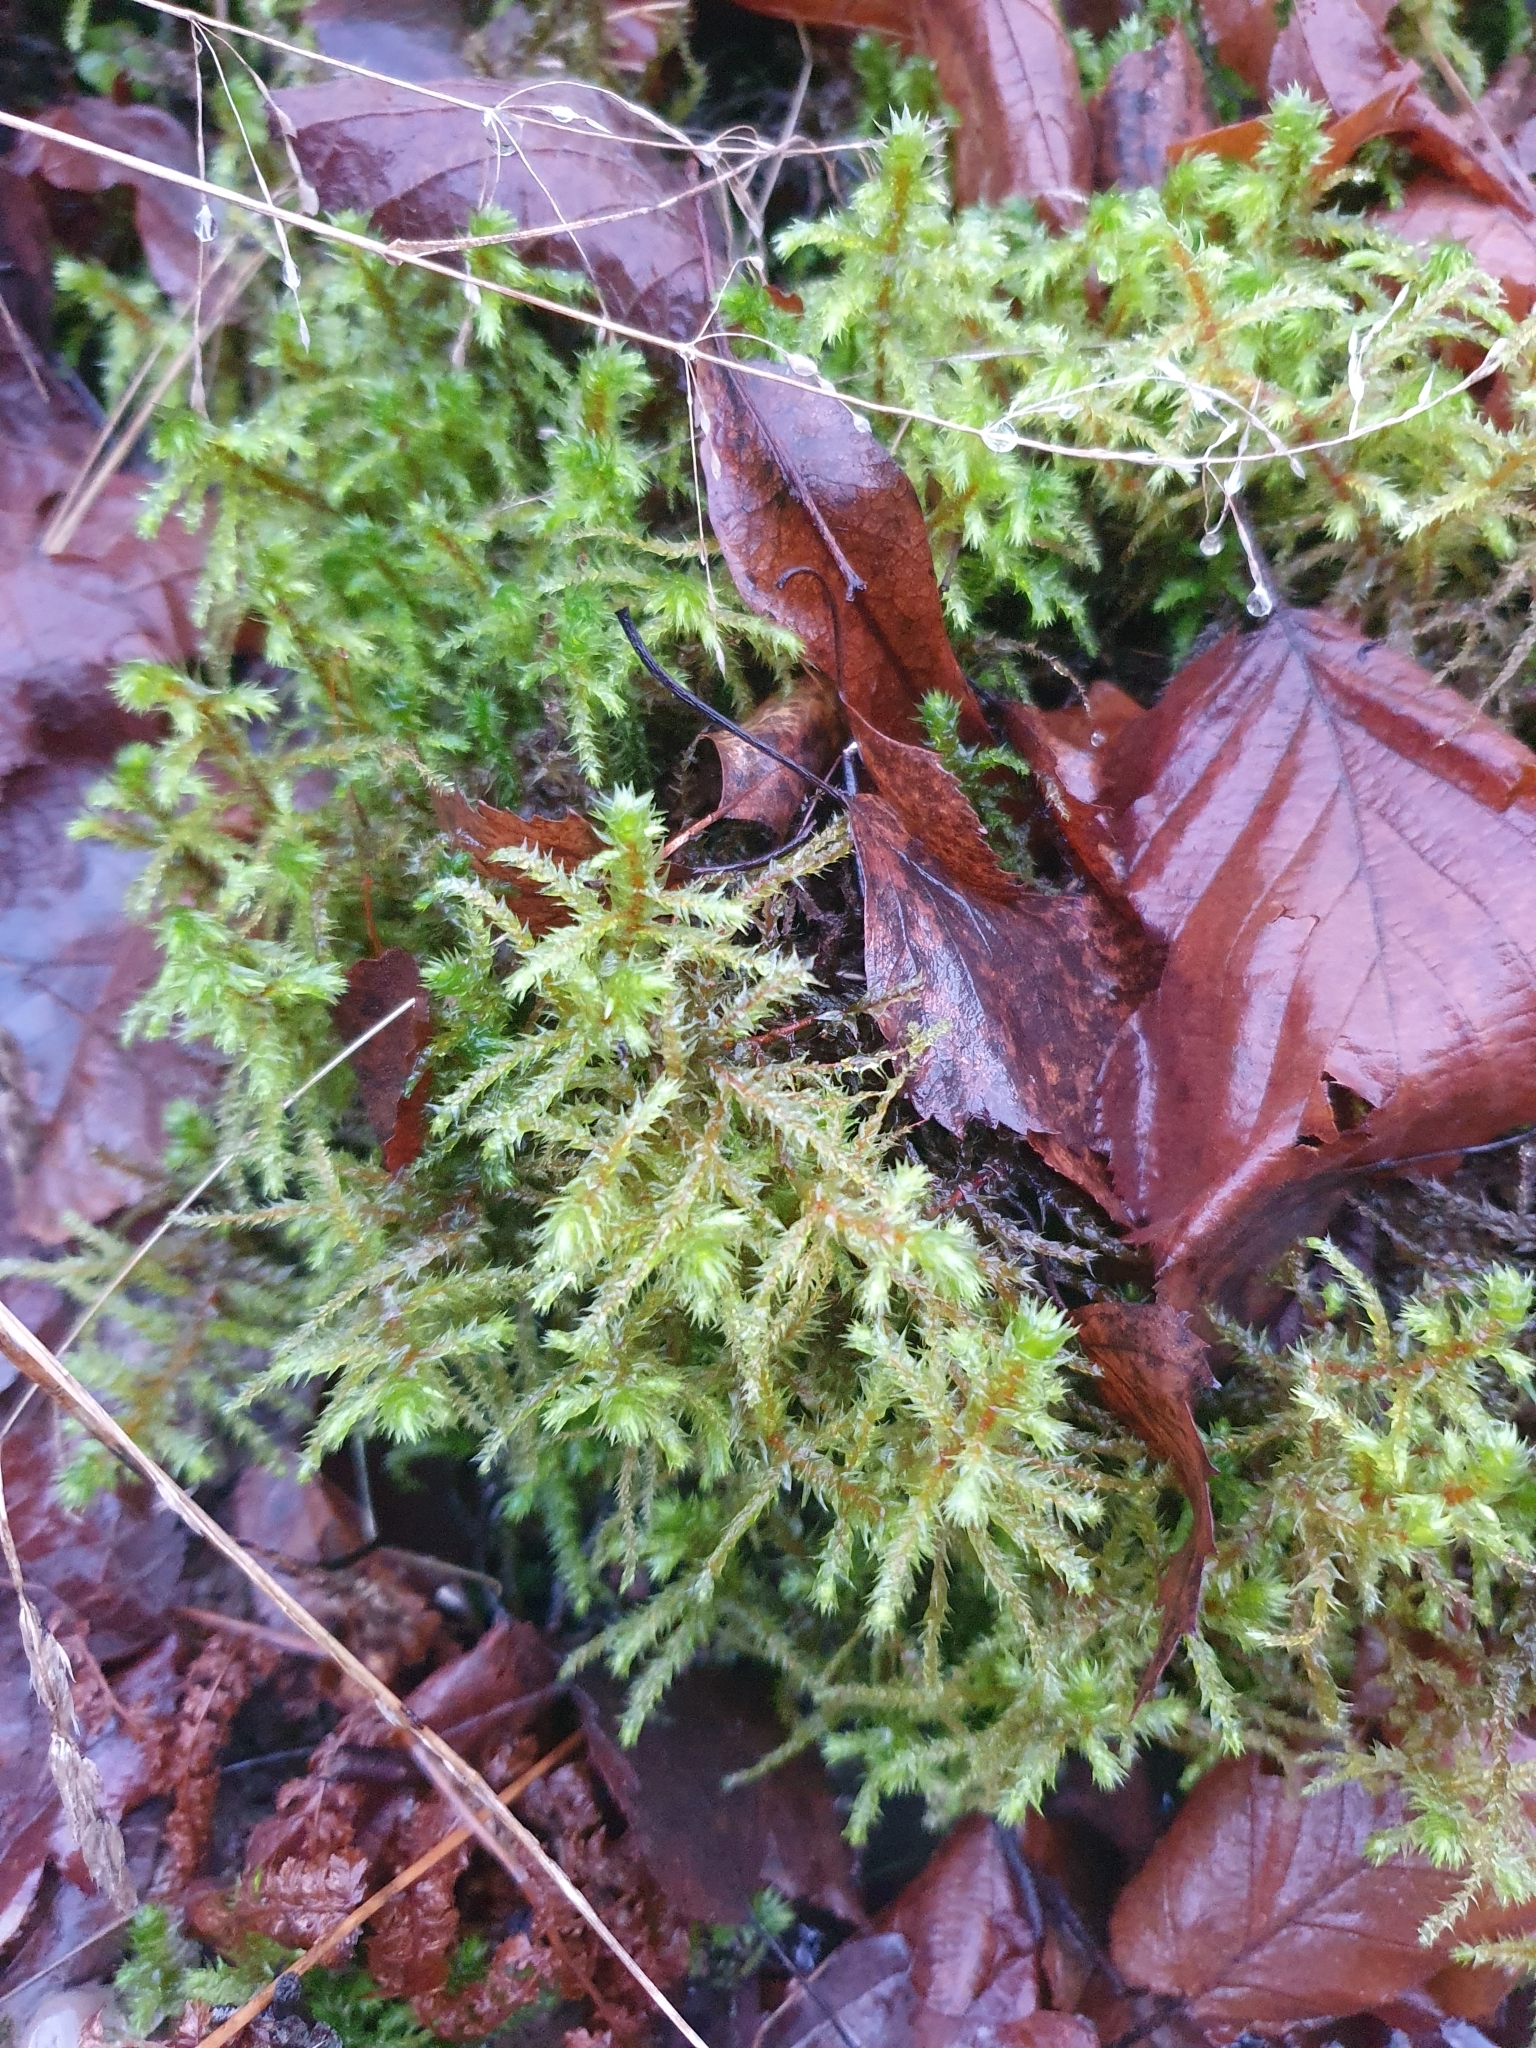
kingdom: Plantae
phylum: Bryophyta
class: Bryopsida
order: Hypnales
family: Hylocomiaceae
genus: Hylocomiadelphus
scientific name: Hylocomiadelphus triquetrus
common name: Rough goose neck moss
